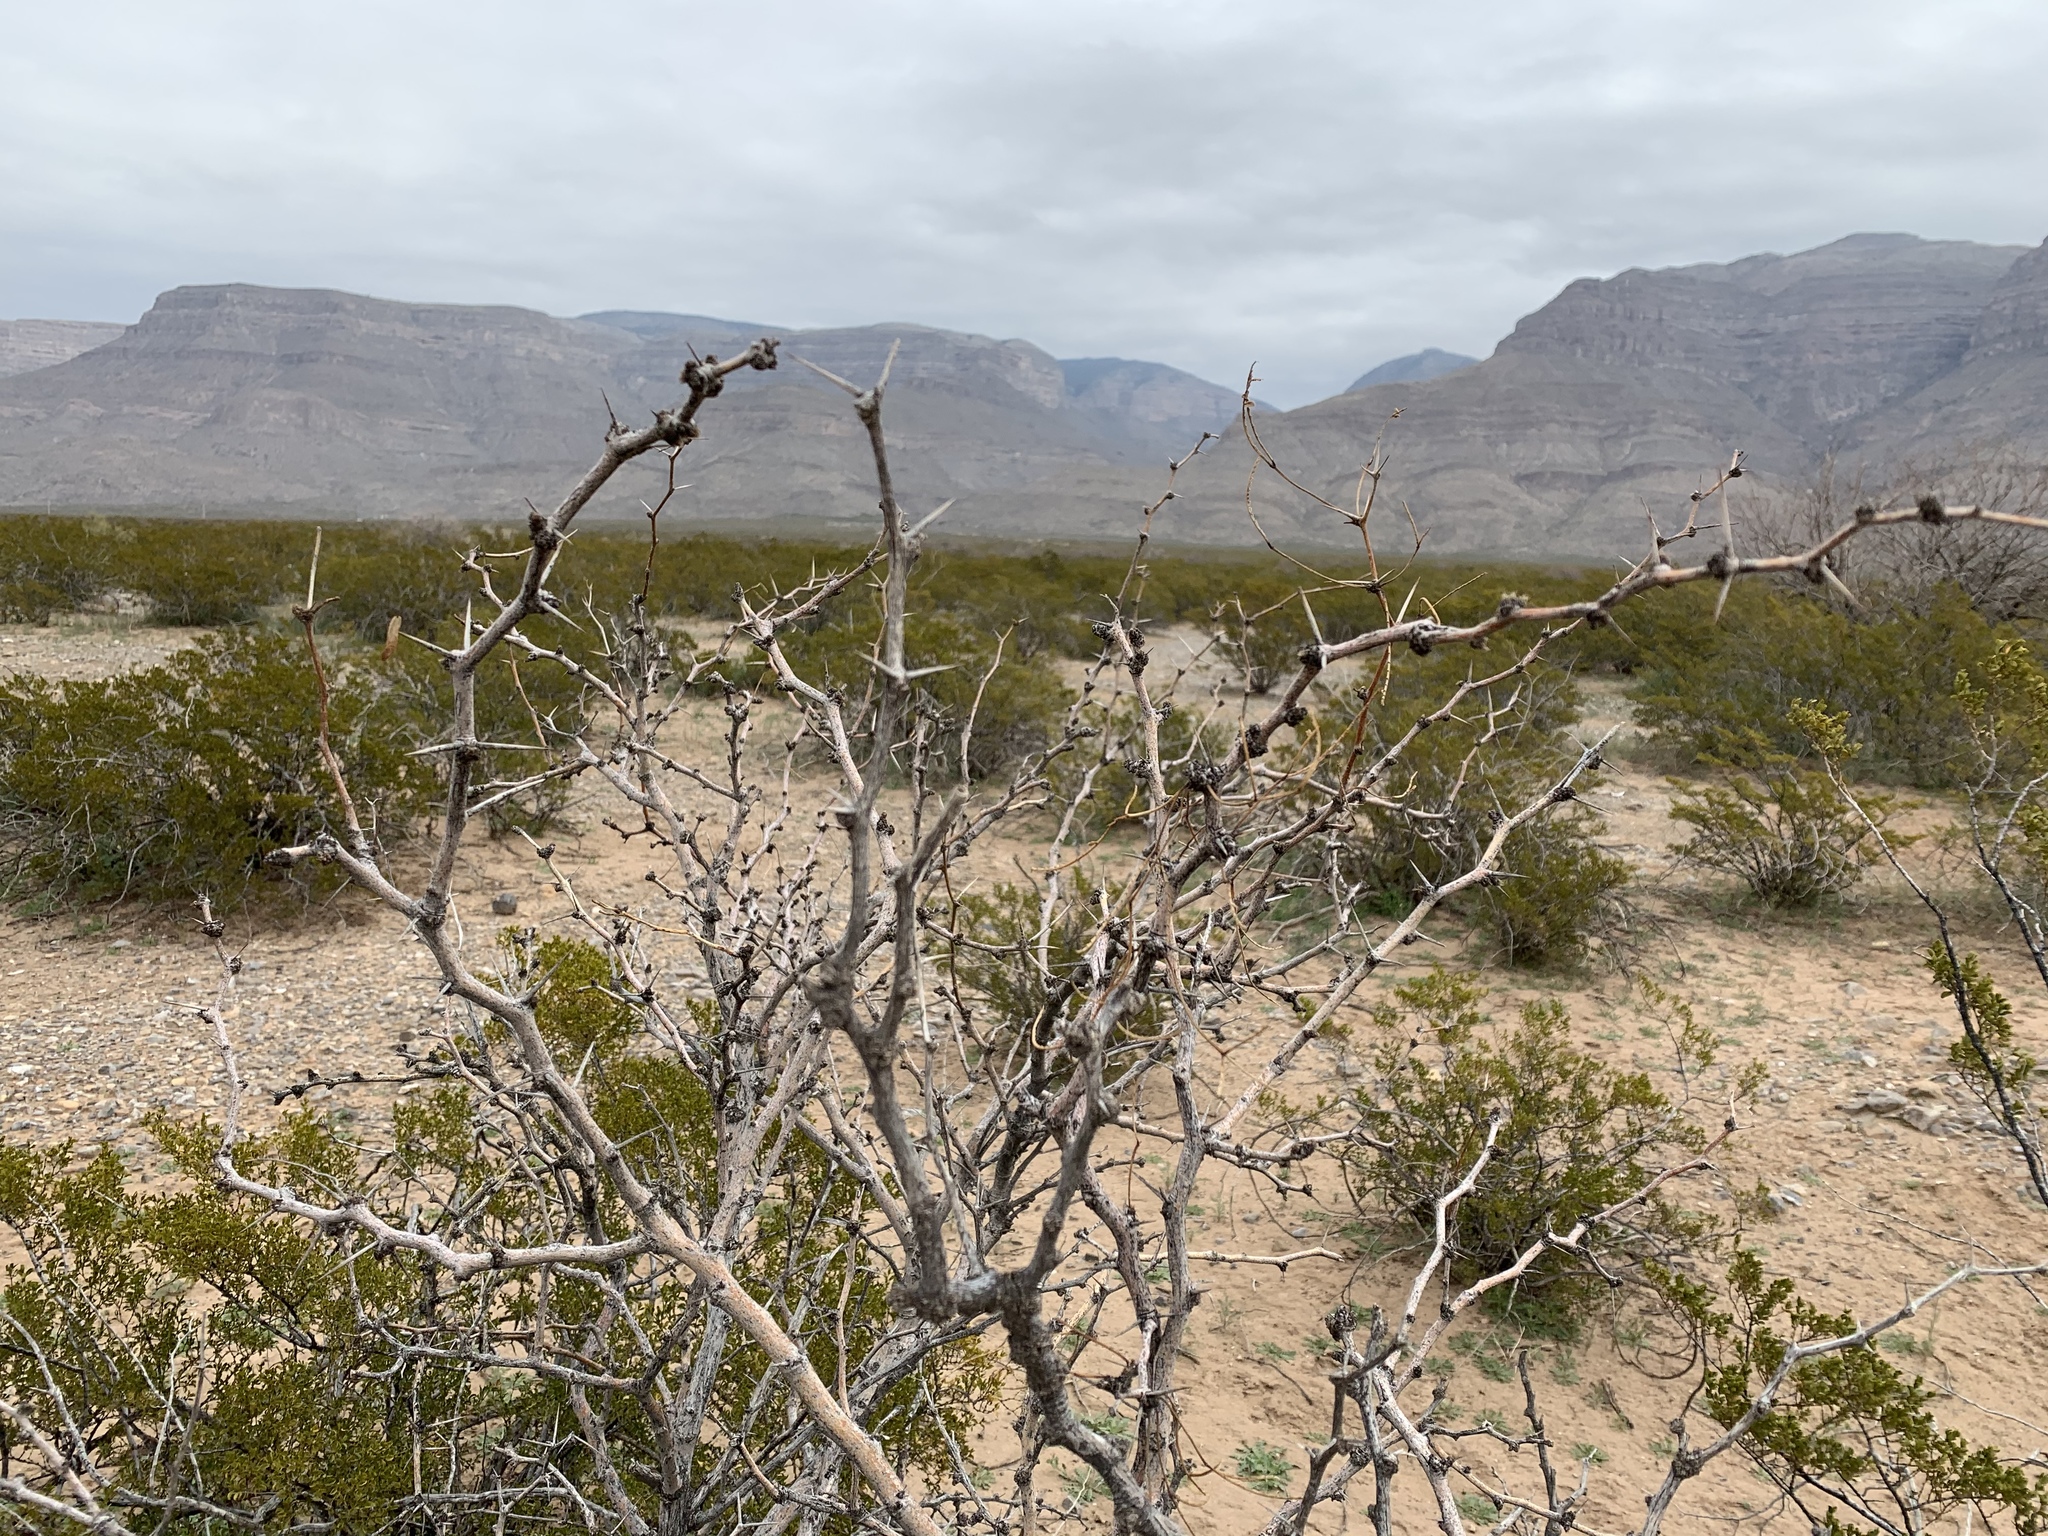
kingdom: Plantae
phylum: Tracheophyta
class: Magnoliopsida
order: Fabales
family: Fabaceae
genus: Prosopis
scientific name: Prosopis glandulosa
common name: Honey mesquite
